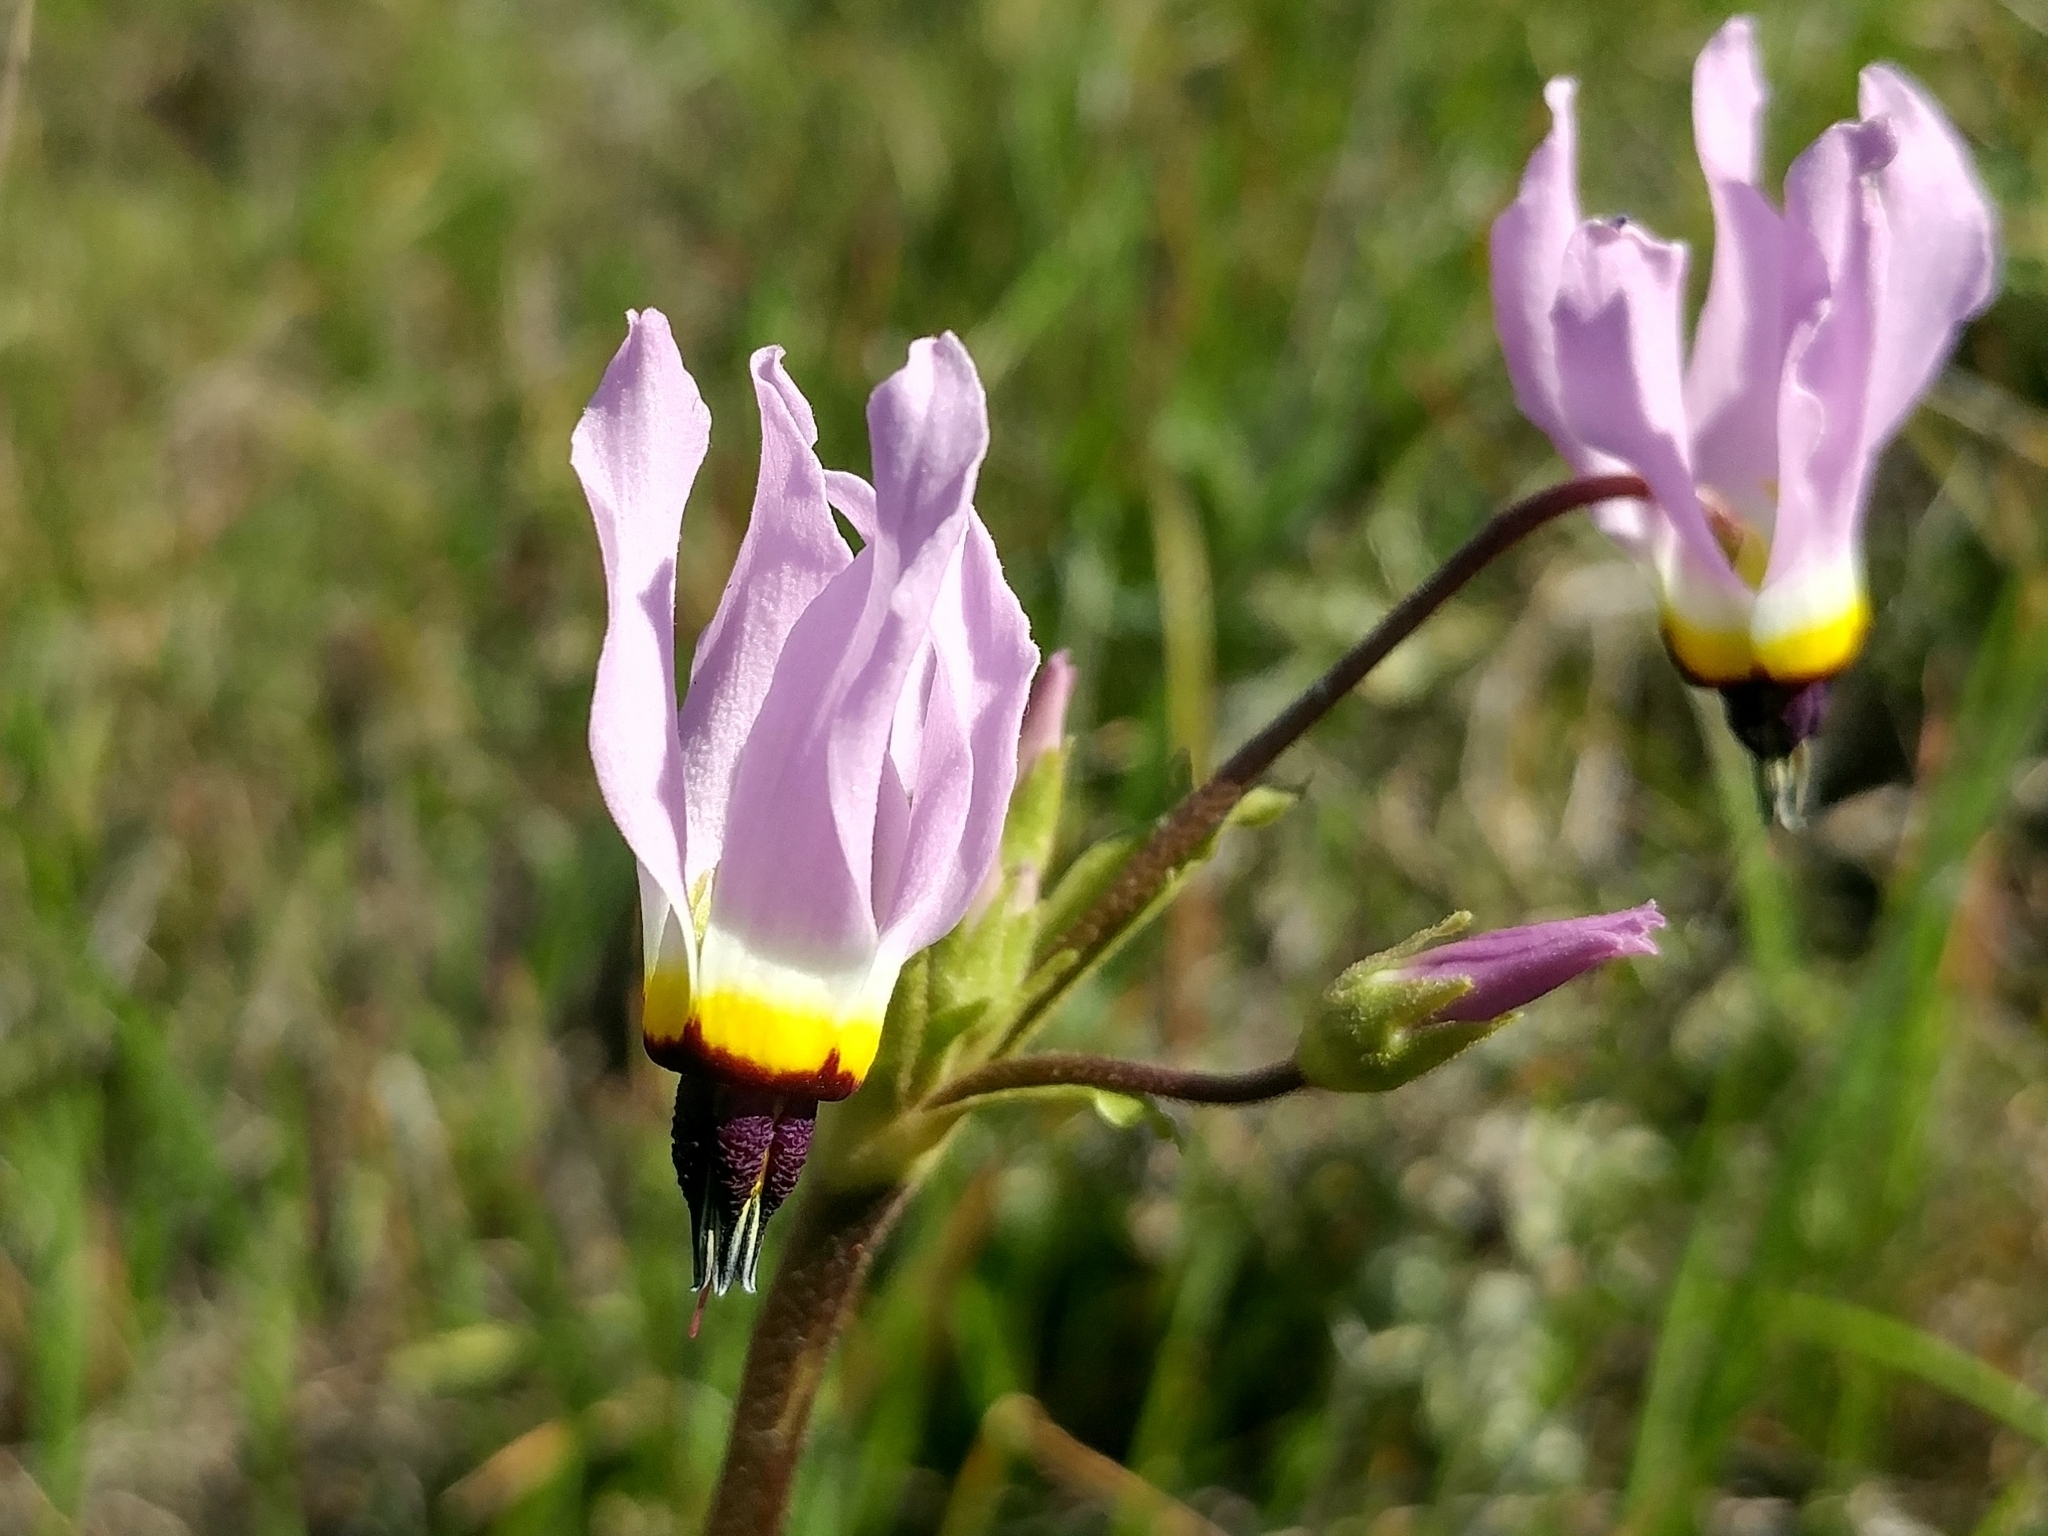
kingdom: Plantae
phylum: Tracheophyta
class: Magnoliopsida
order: Ericales
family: Primulaceae
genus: Dodecatheon
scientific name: Dodecatheon clevelandii
